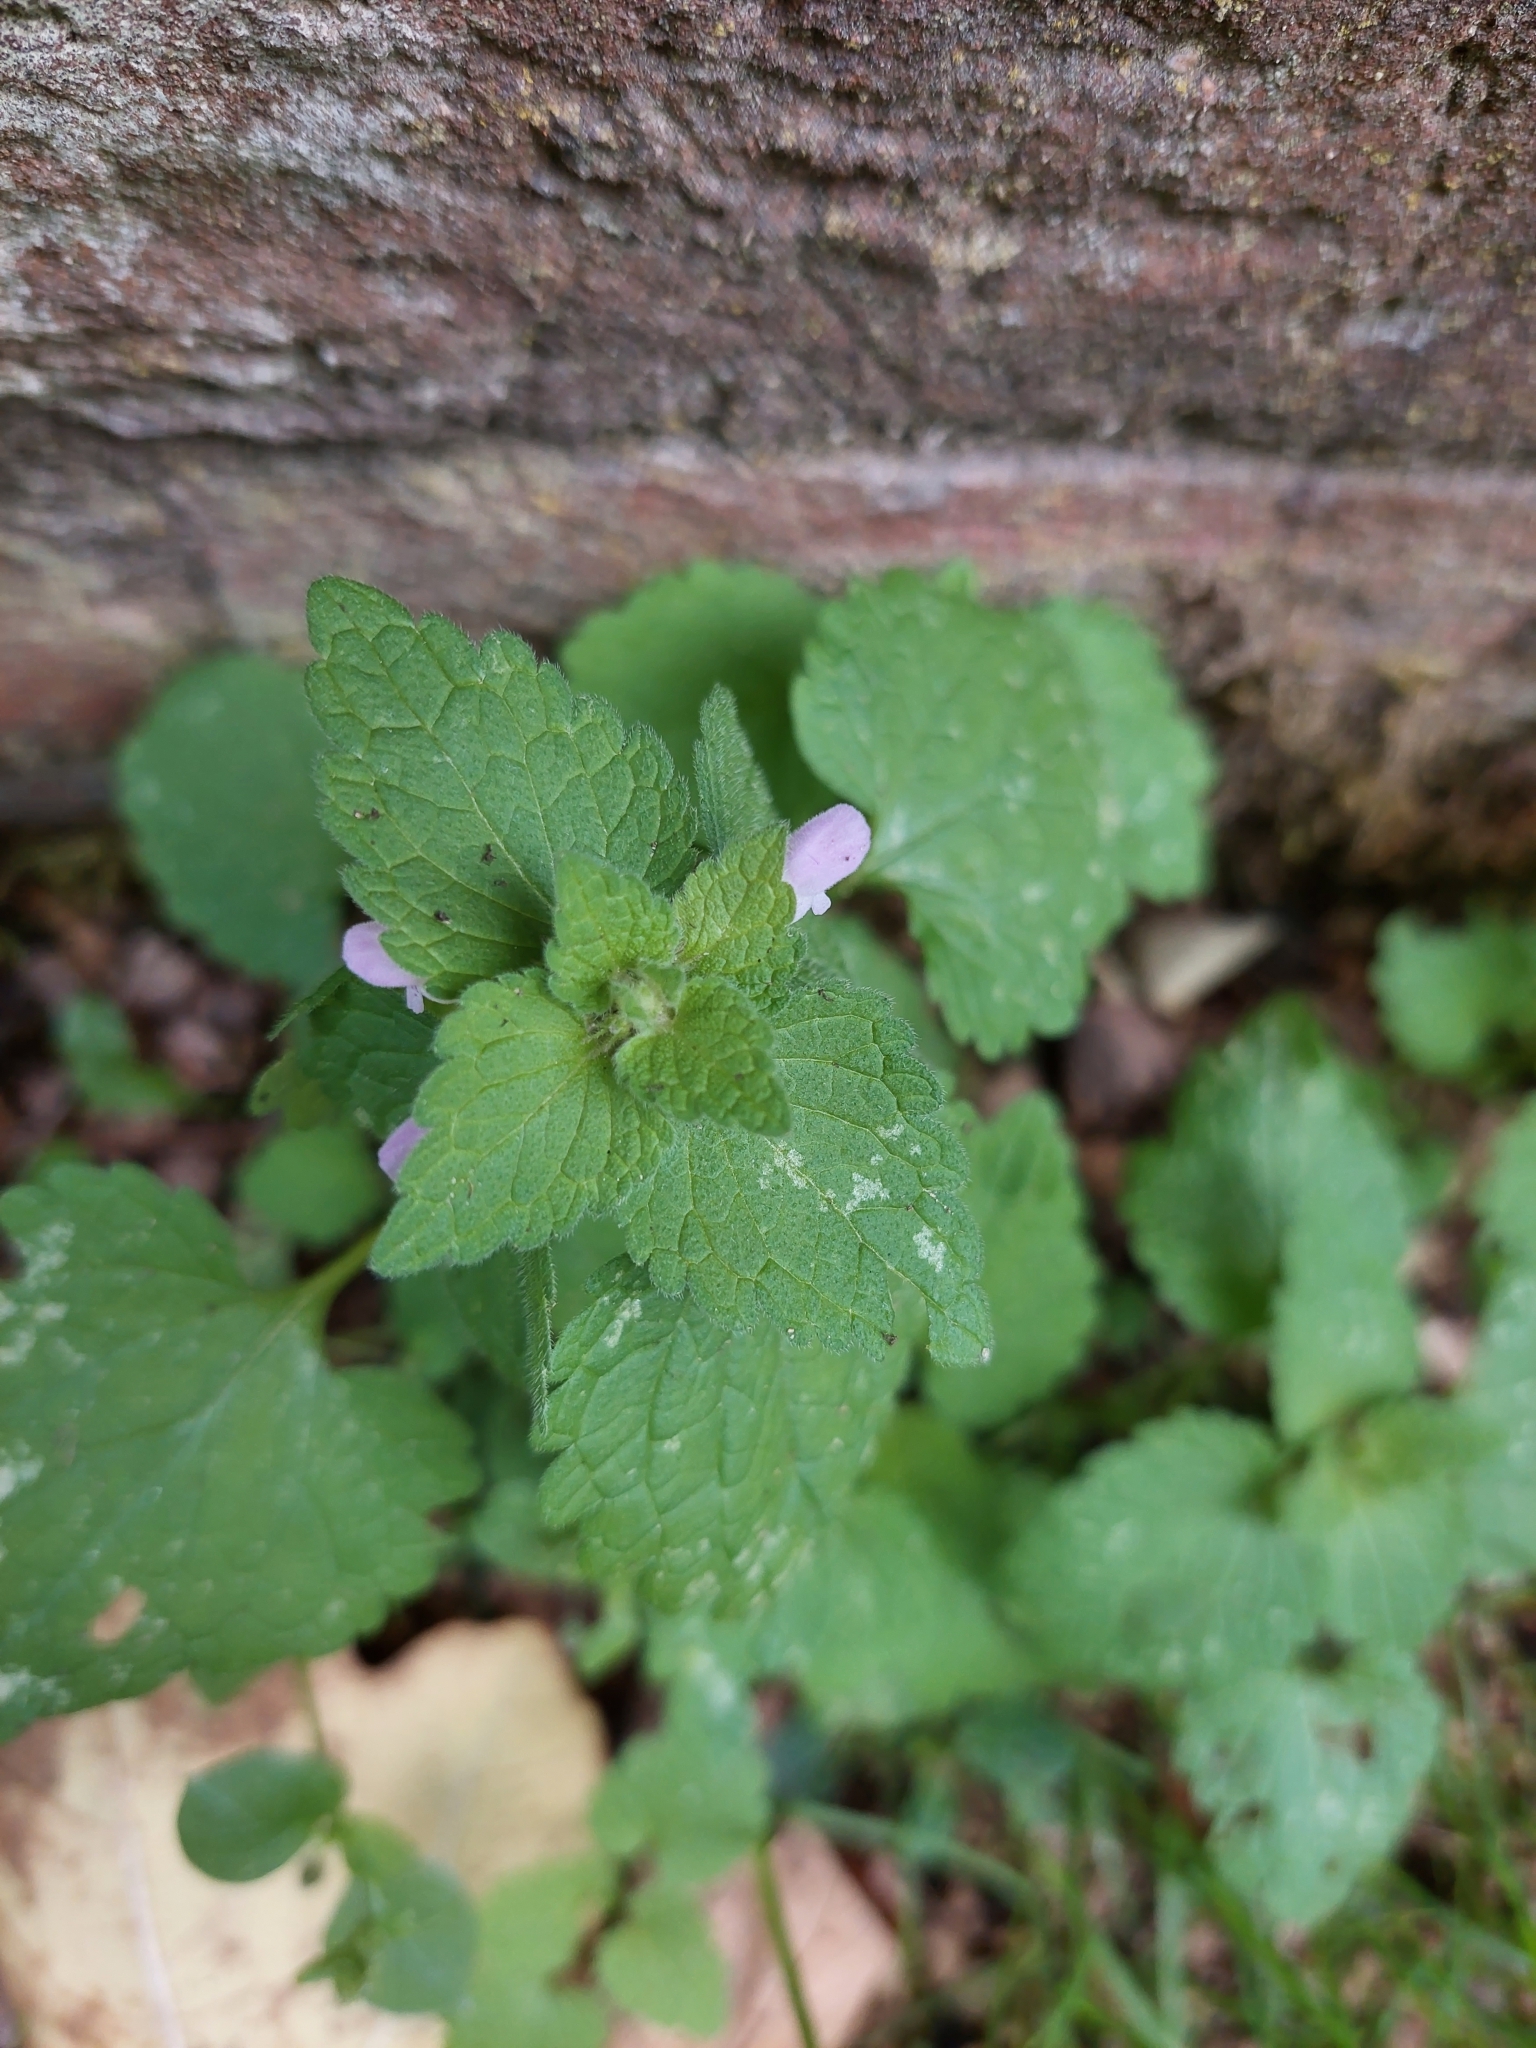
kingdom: Plantae
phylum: Tracheophyta
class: Magnoliopsida
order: Lamiales
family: Lamiaceae
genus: Lamium
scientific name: Lamium purpureum
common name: Red dead-nettle
